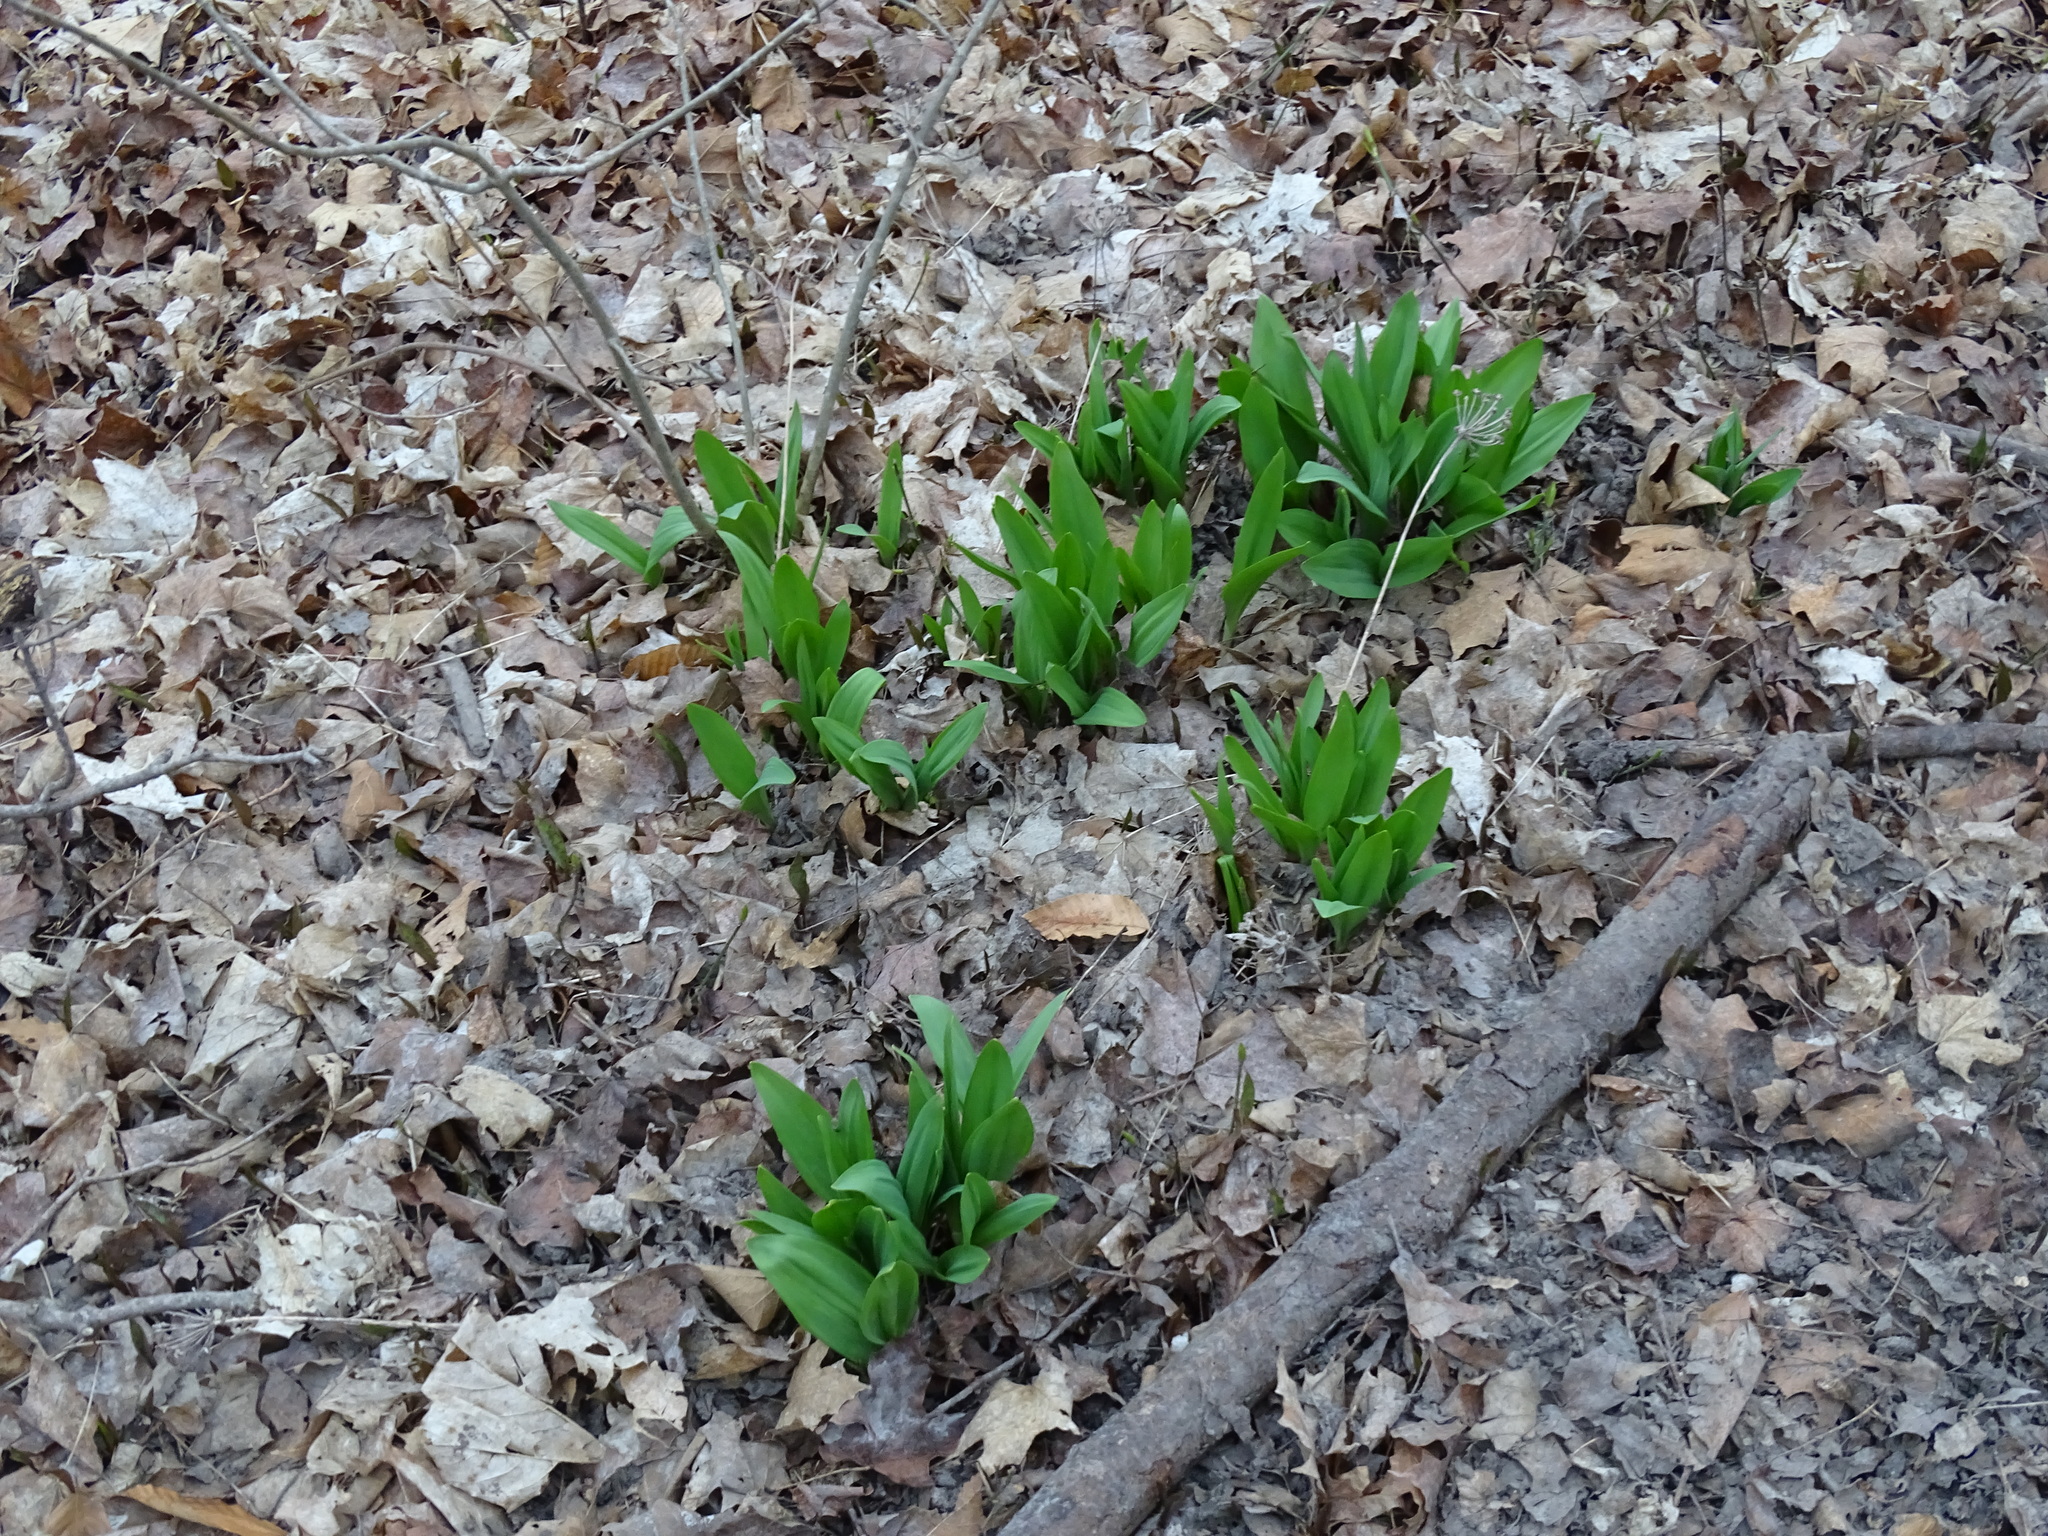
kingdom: Plantae
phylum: Tracheophyta
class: Liliopsida
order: Asparagales
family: Amaryllidaceae
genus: Allium
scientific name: Allium tricoccum
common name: Ramp
